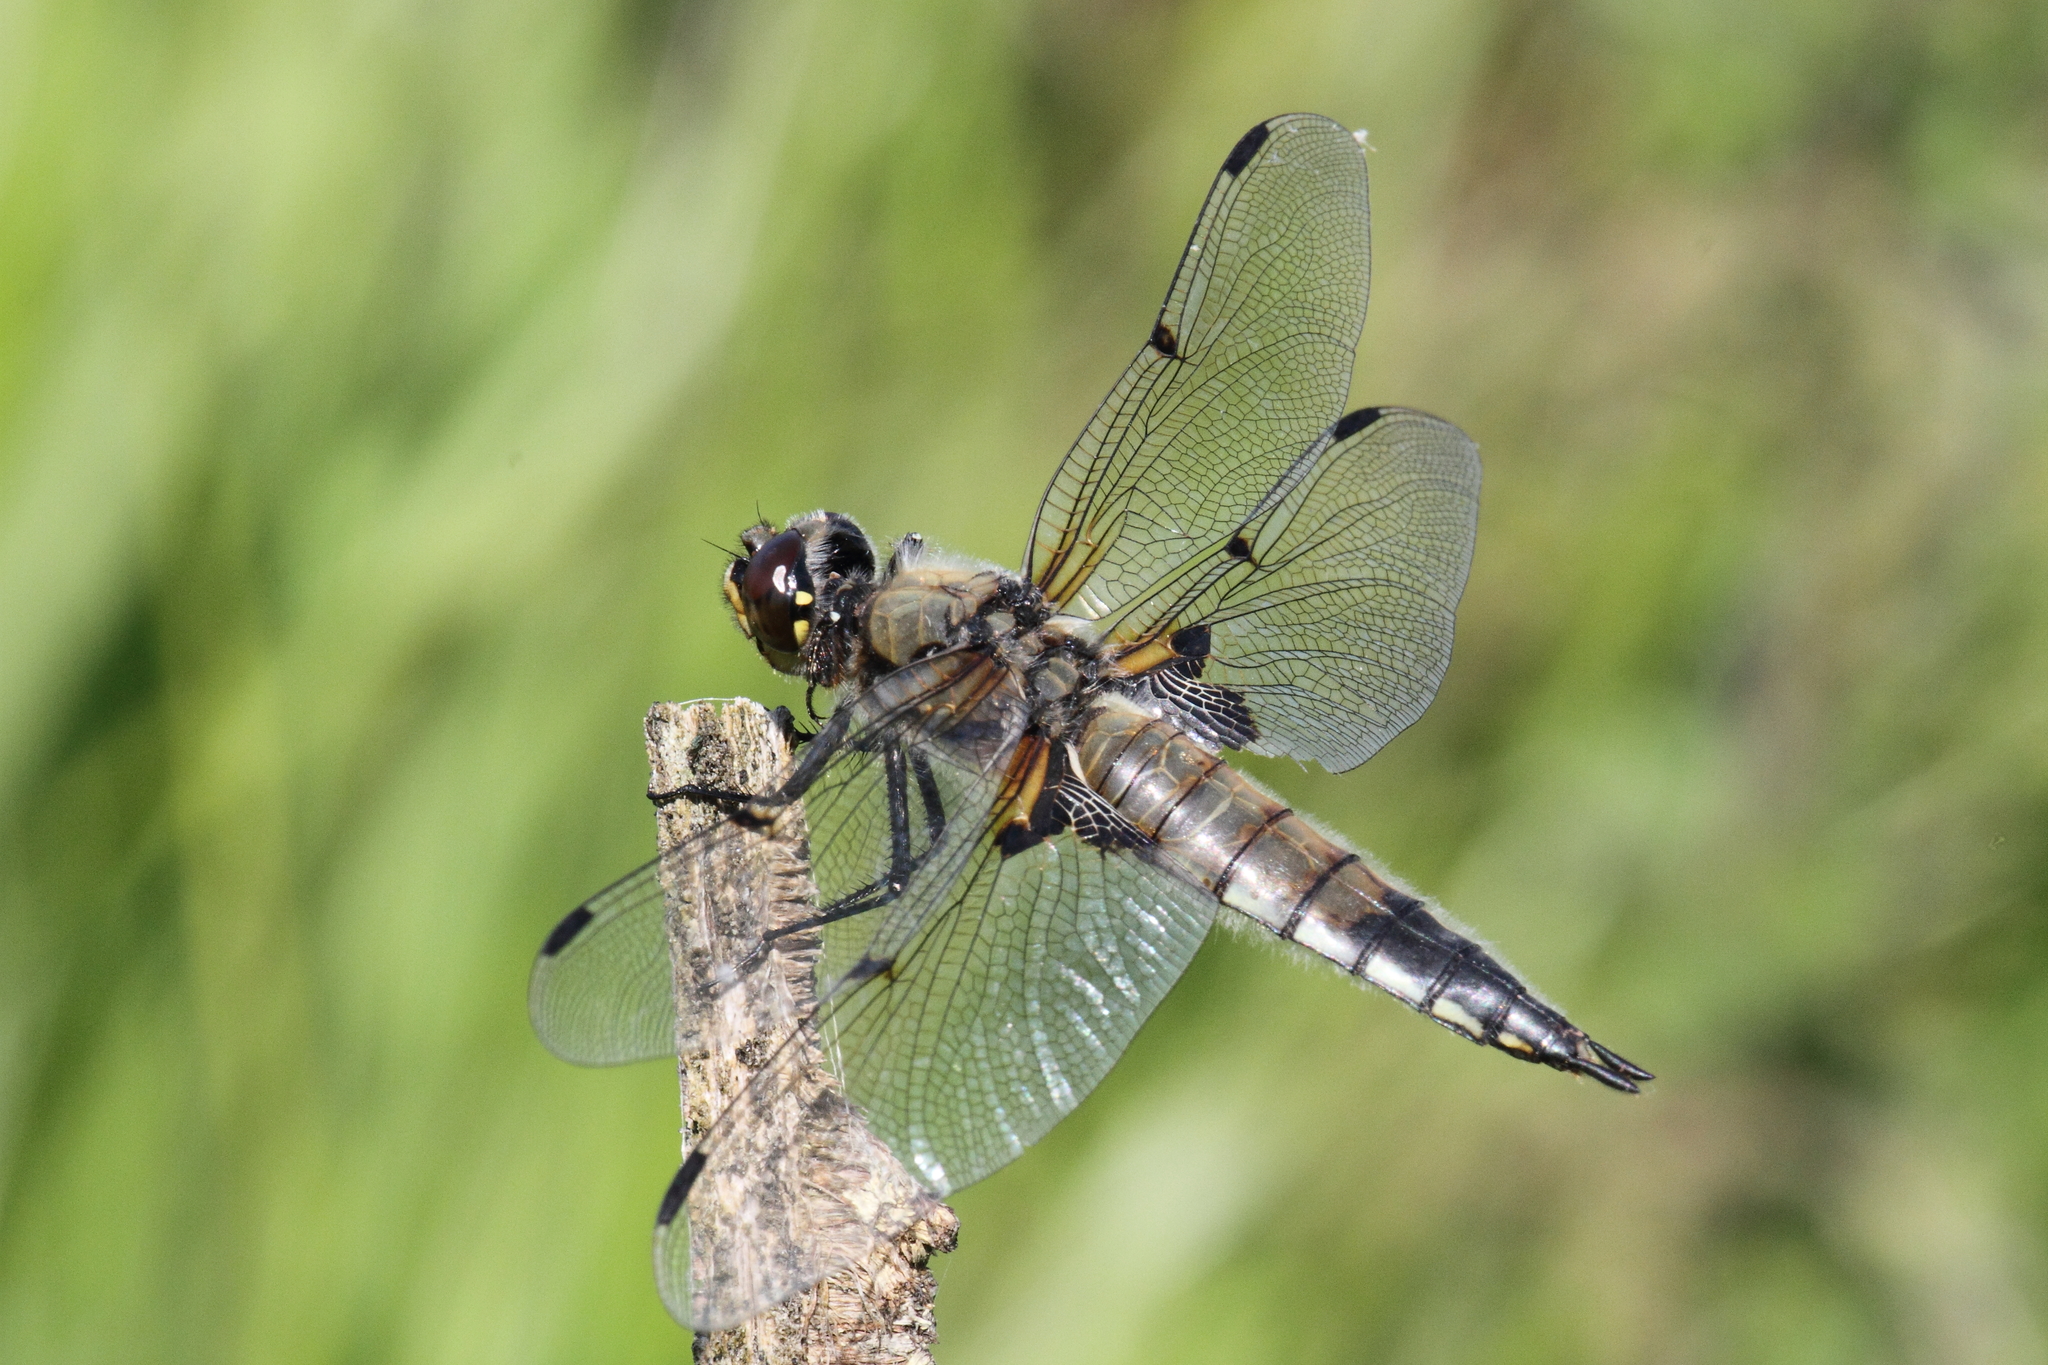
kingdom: Animalia
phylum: Arthropoda
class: Insecta
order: Odonata
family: Libellulidae
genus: Libellula
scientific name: Libellula quadrimaculata
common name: Four-spotted chaser
